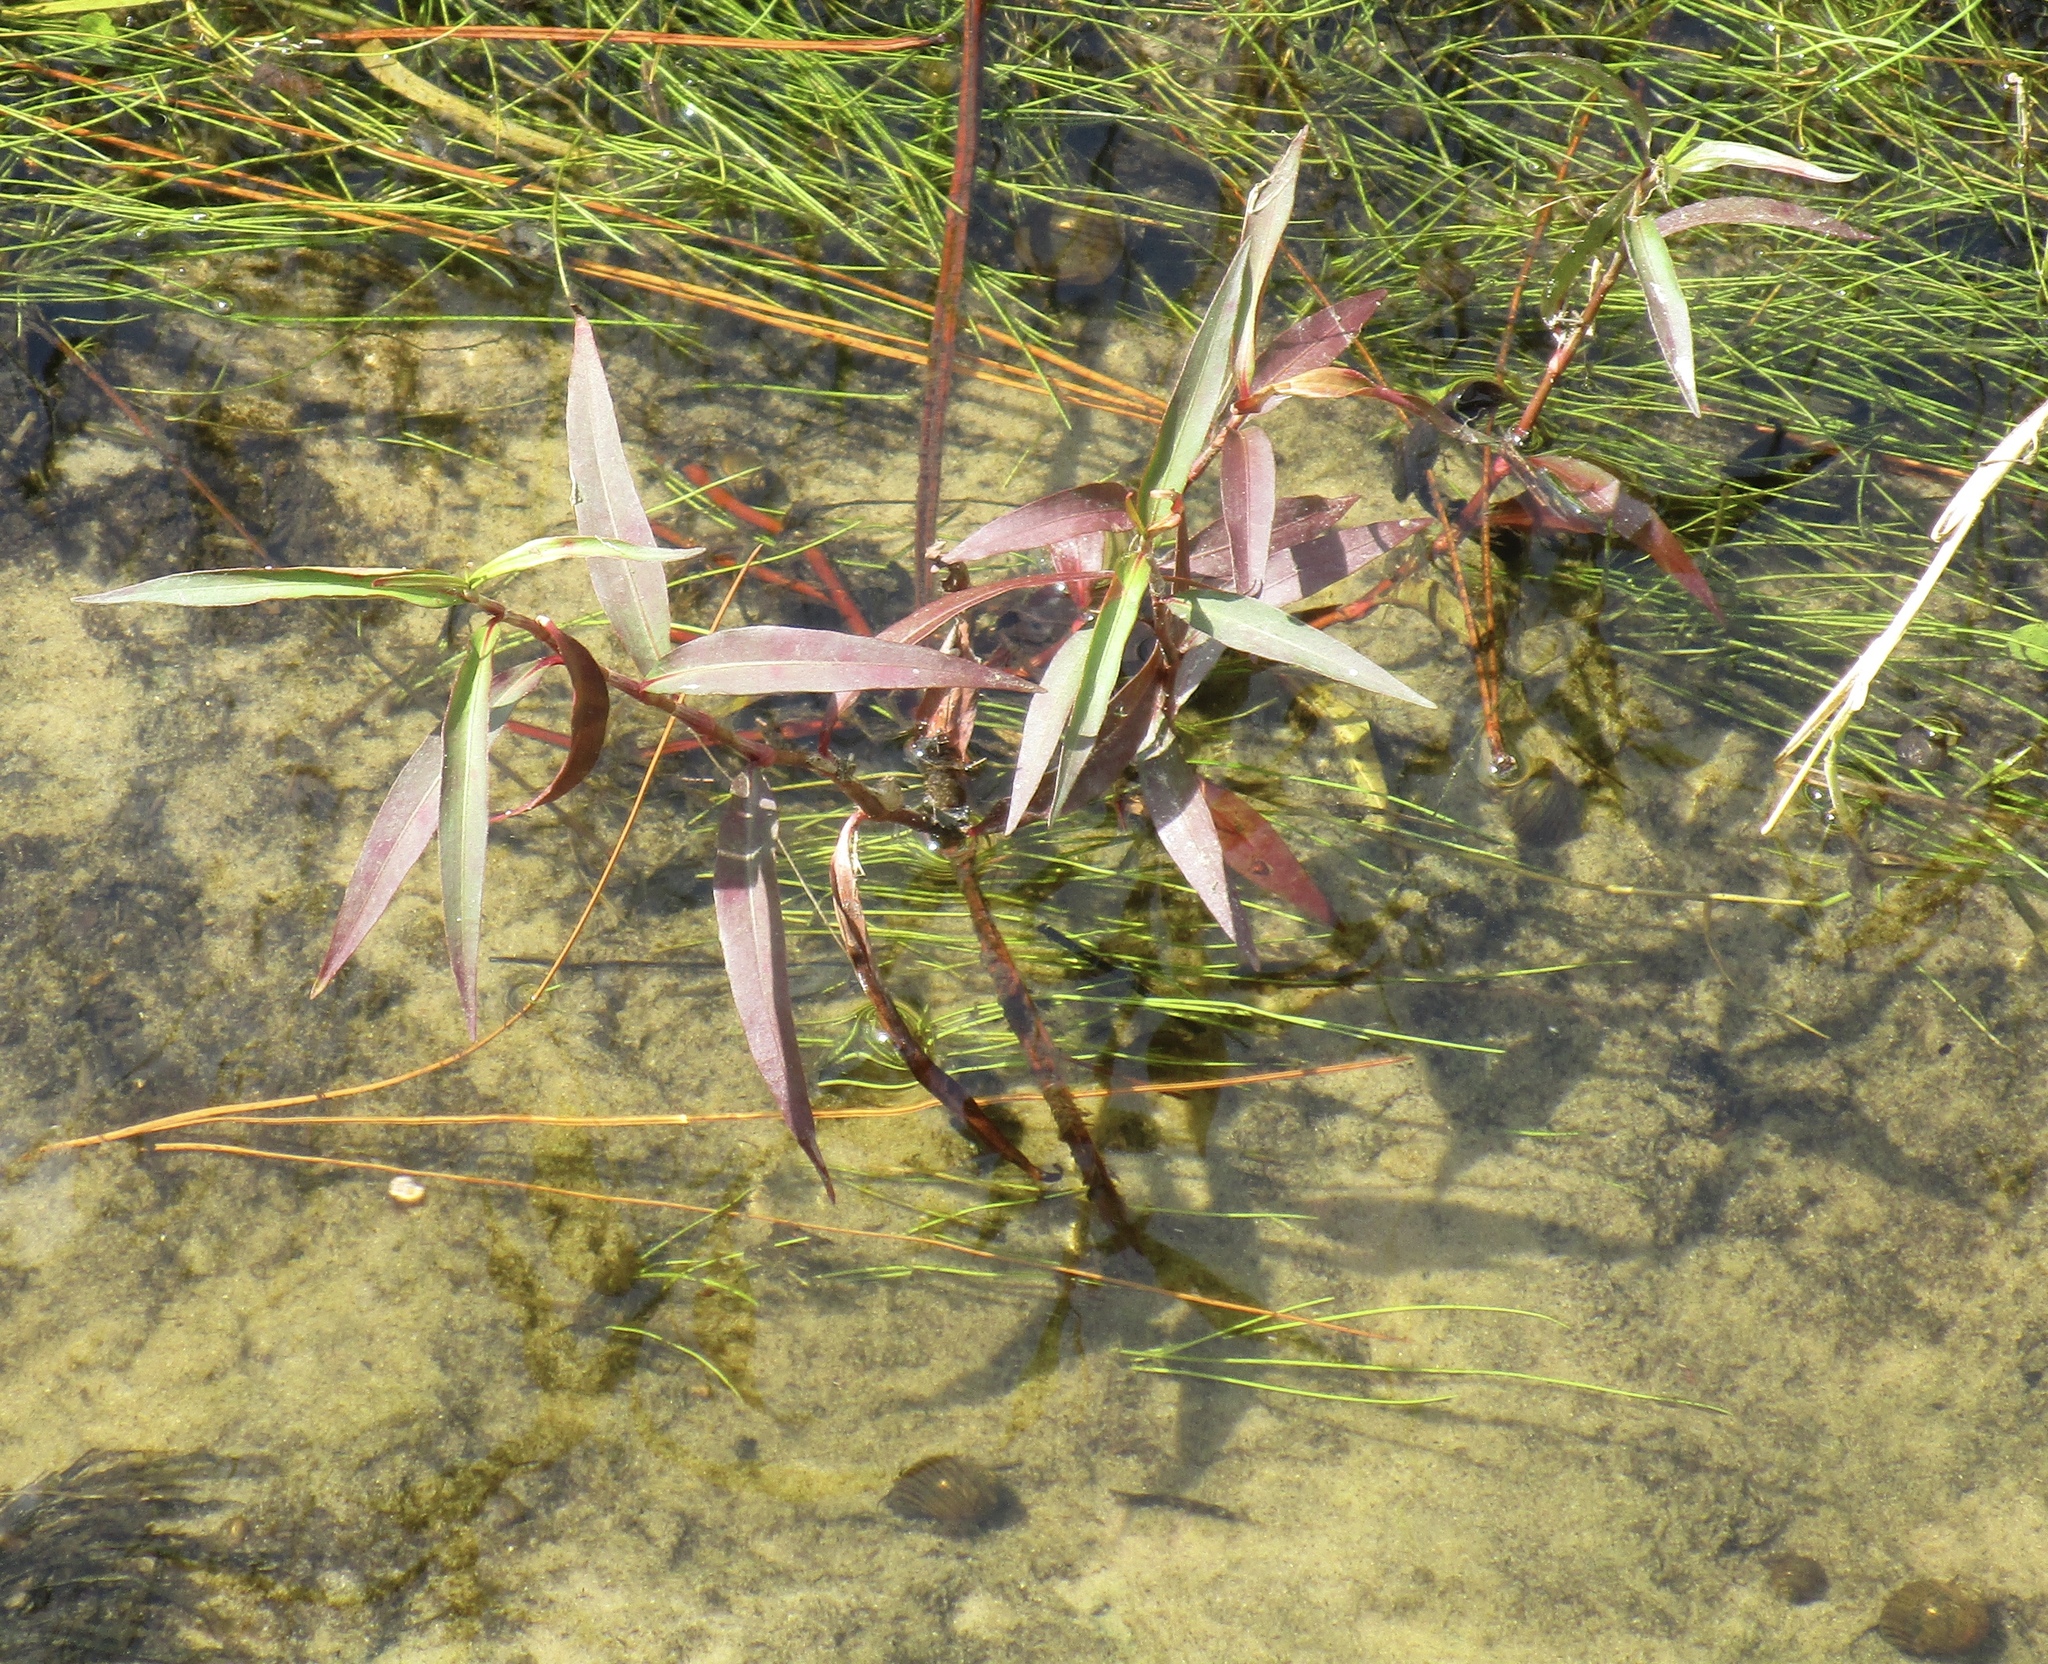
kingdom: Plantae
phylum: Tracheophyta
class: Magnoliopsida
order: Caryophyllales
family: Polygonaceae
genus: Persicaria
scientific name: Persicaria glabra
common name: Denseflower knotweed
